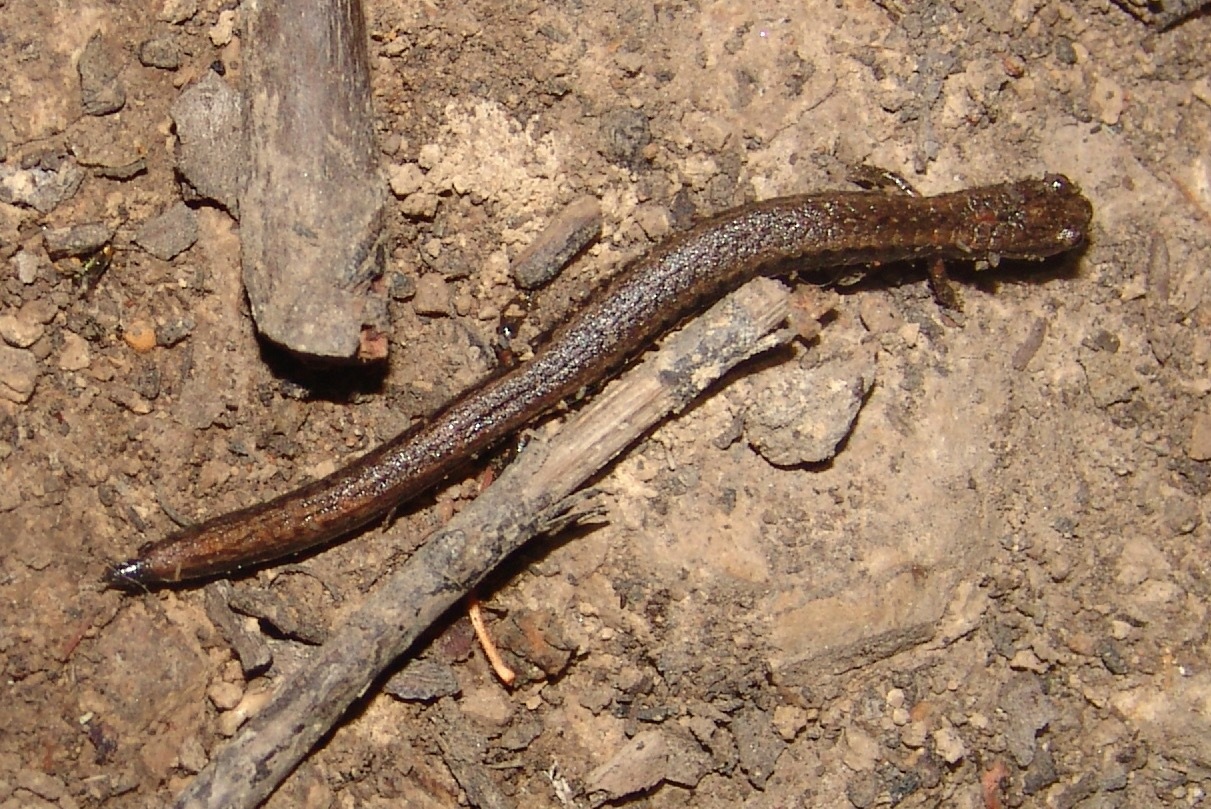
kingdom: Animalia
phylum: Chordata
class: Amphibia
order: Caudata
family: Plethodontidae
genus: Batrachoseps
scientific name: Batrachoseps attenuatus
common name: California slender salamander
